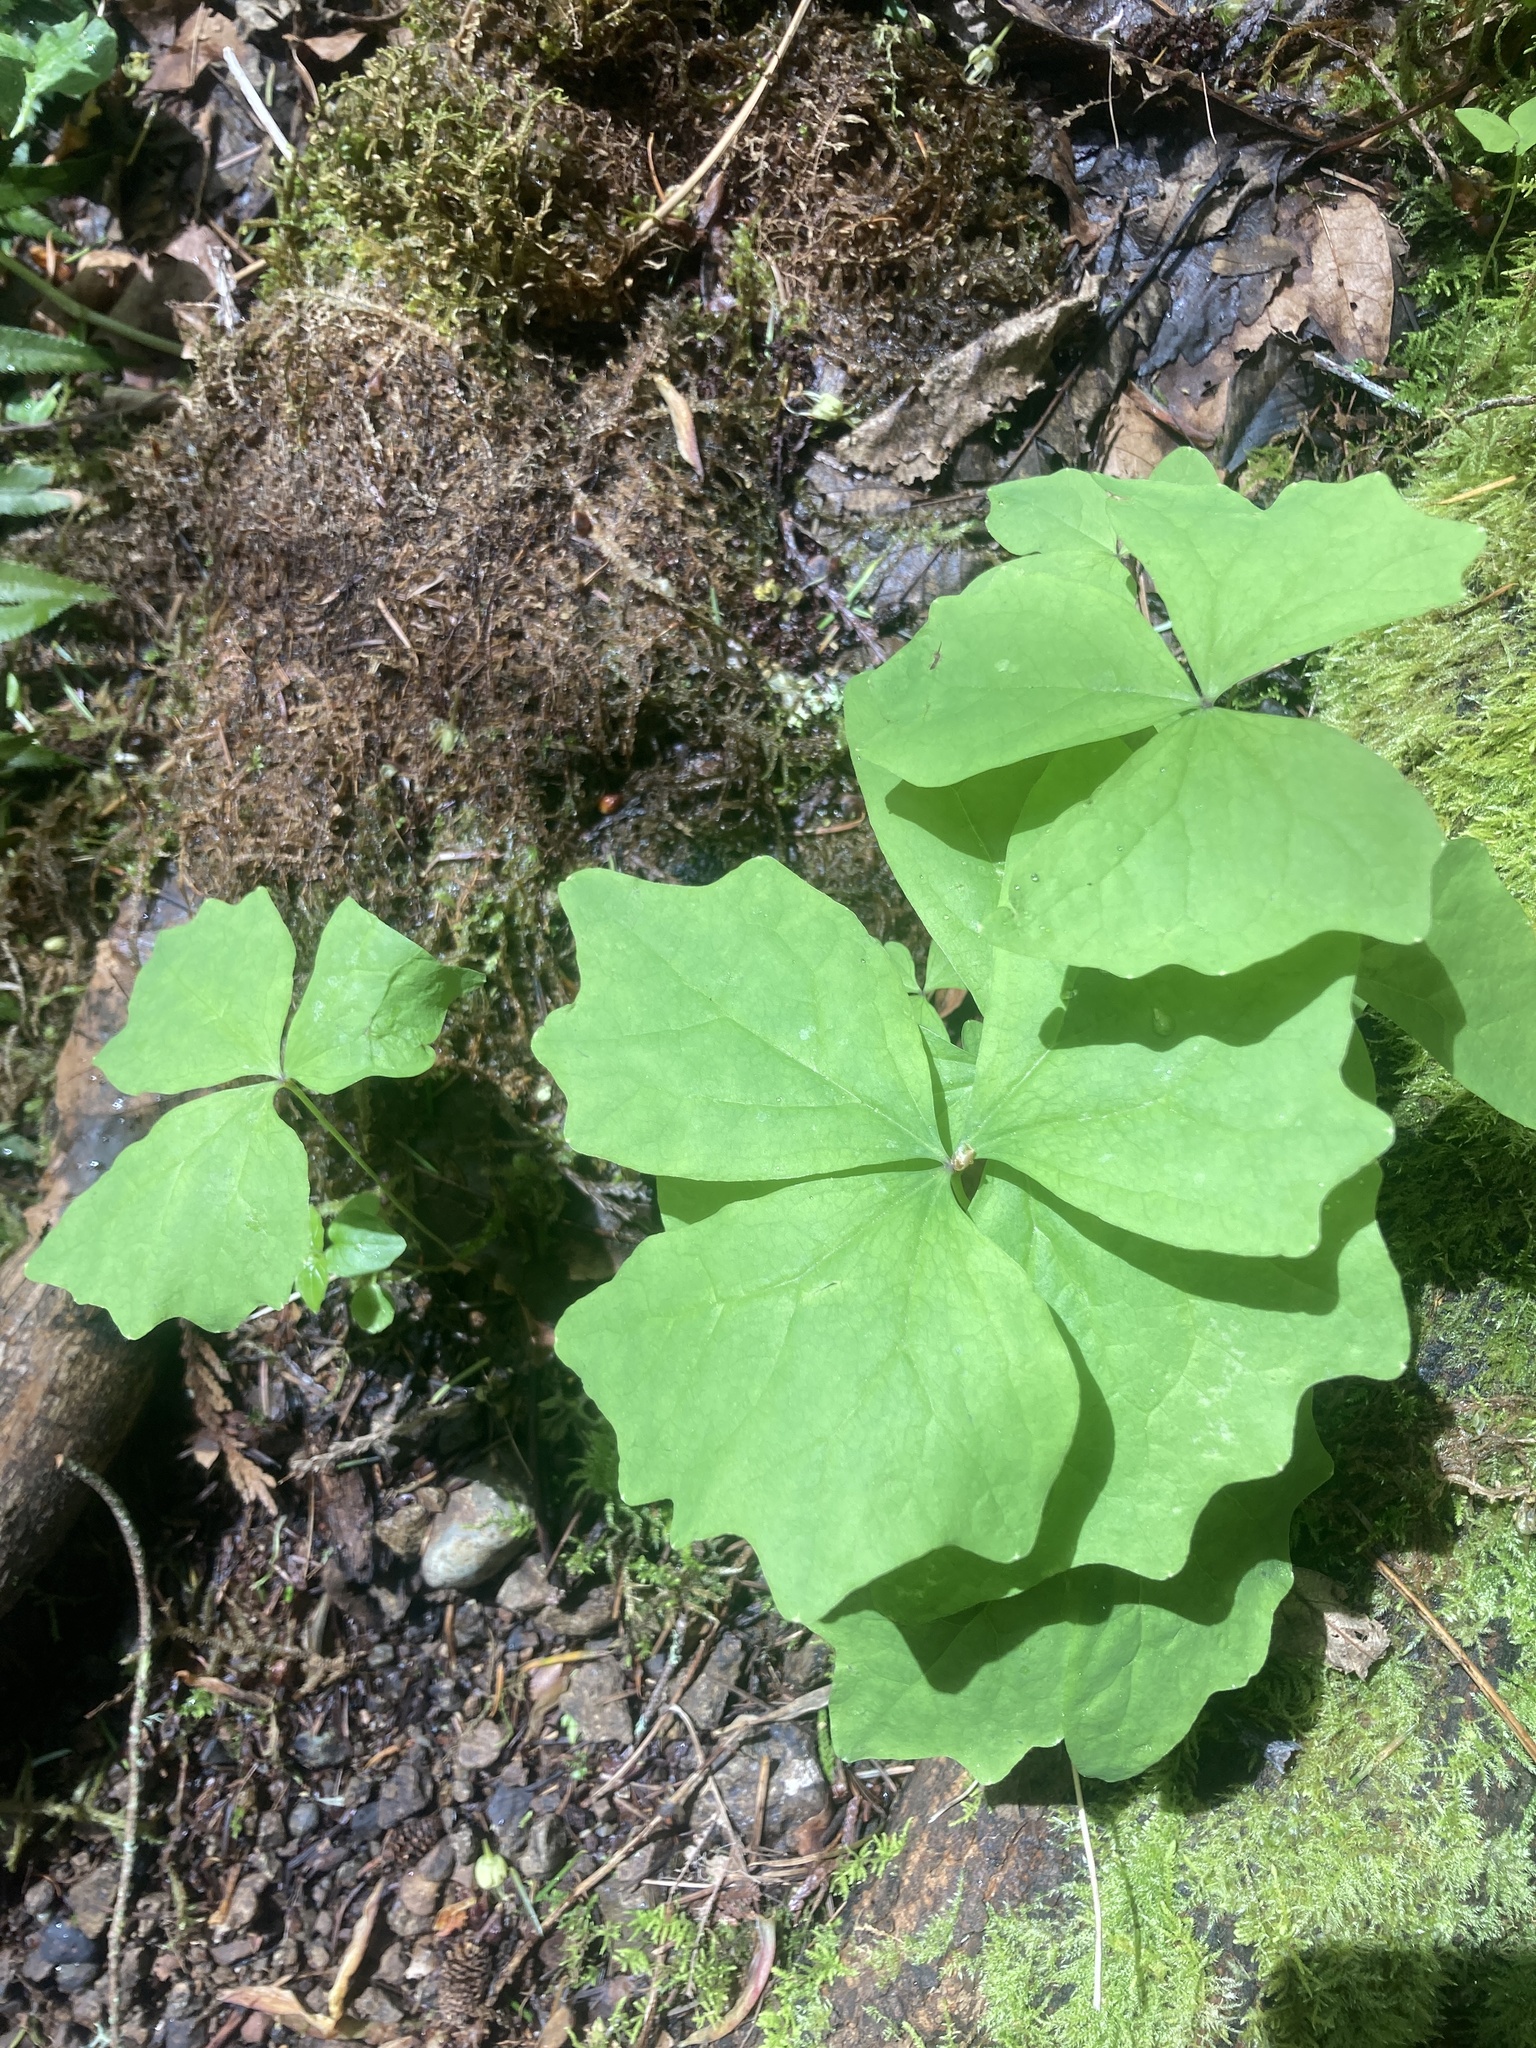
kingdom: Plantae
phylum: Tracheophyta
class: Magnoliopsida
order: Ranunculales
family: Berberidaceae
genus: Achlys
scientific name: Achlys triphylla
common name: Vanilla-leaf
